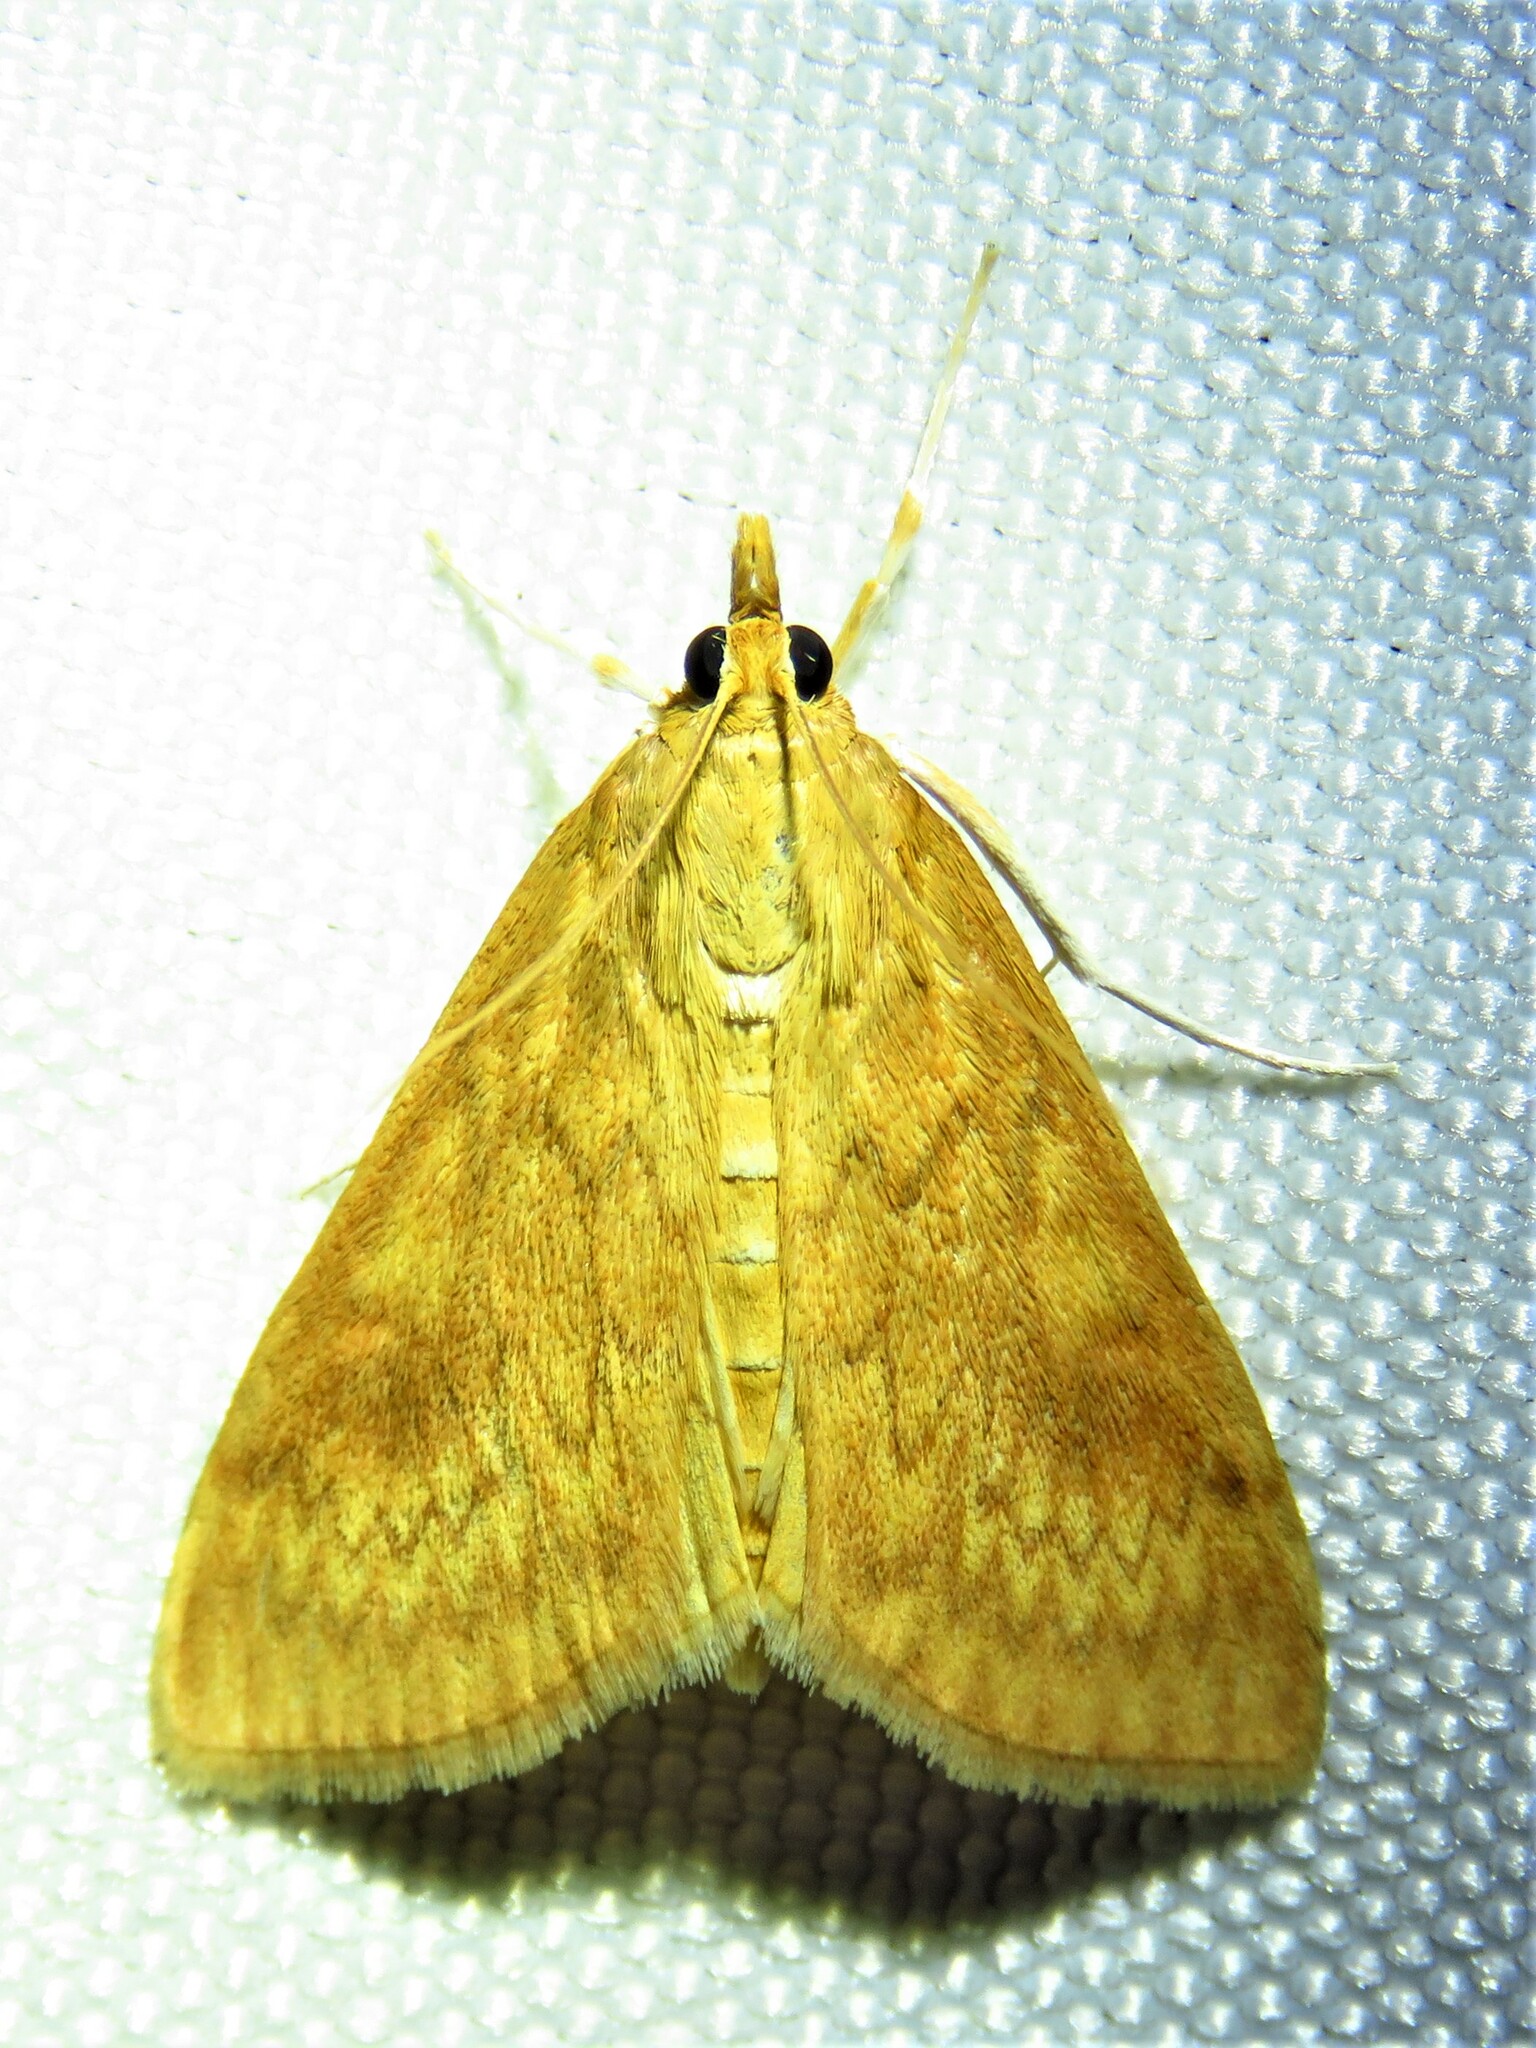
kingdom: Animalia
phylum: Arthropoda
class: Insecta
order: Lepidoptera
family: Crambidae
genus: Ostrinia
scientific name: Ostrinia penitalis
